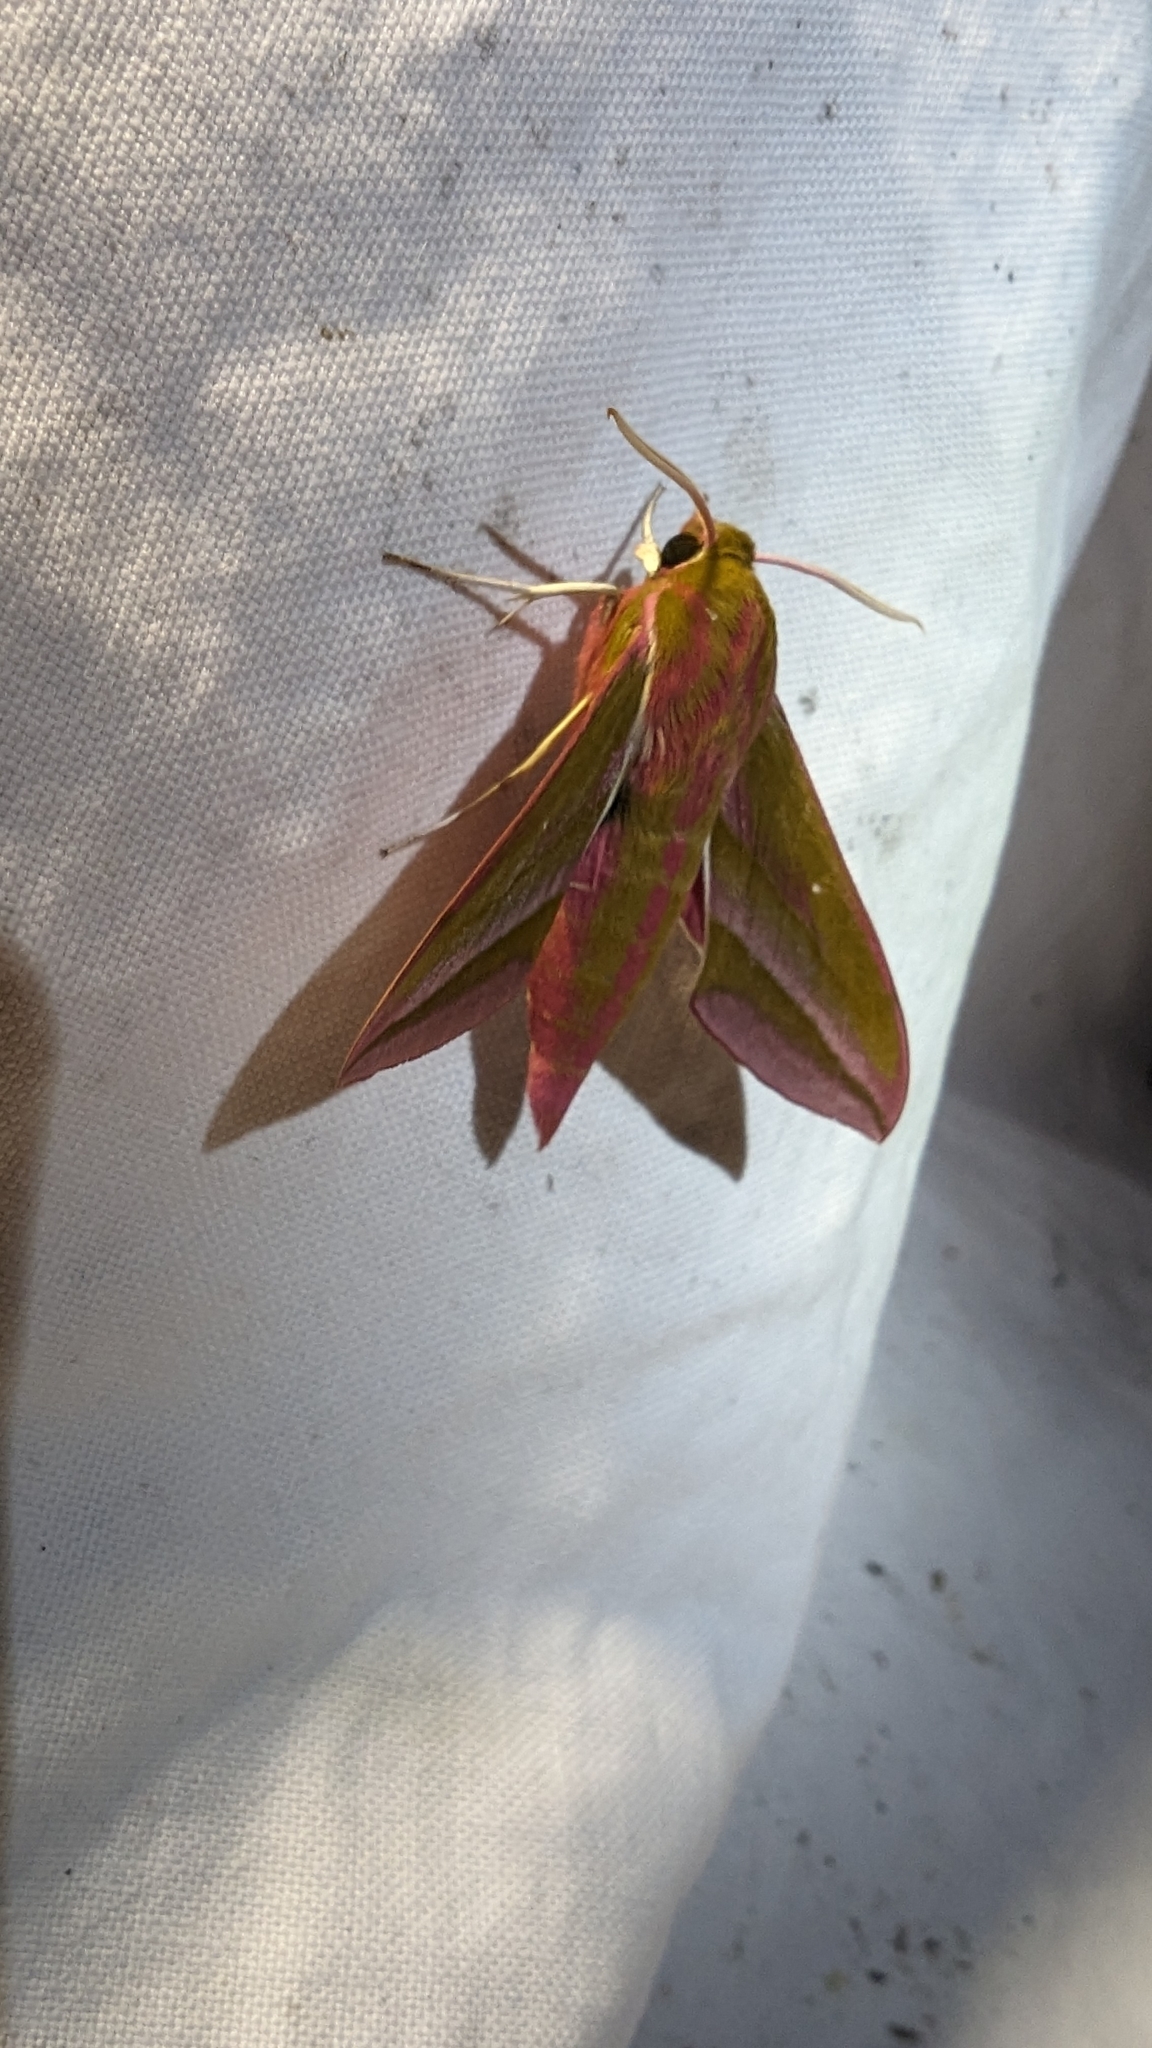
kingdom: Animalia
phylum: Arthropoda
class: Insecta
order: Lepidoptera
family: Sphingidae
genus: Deilephila
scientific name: Deilephila elpenor
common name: Elephant hawk-moth
